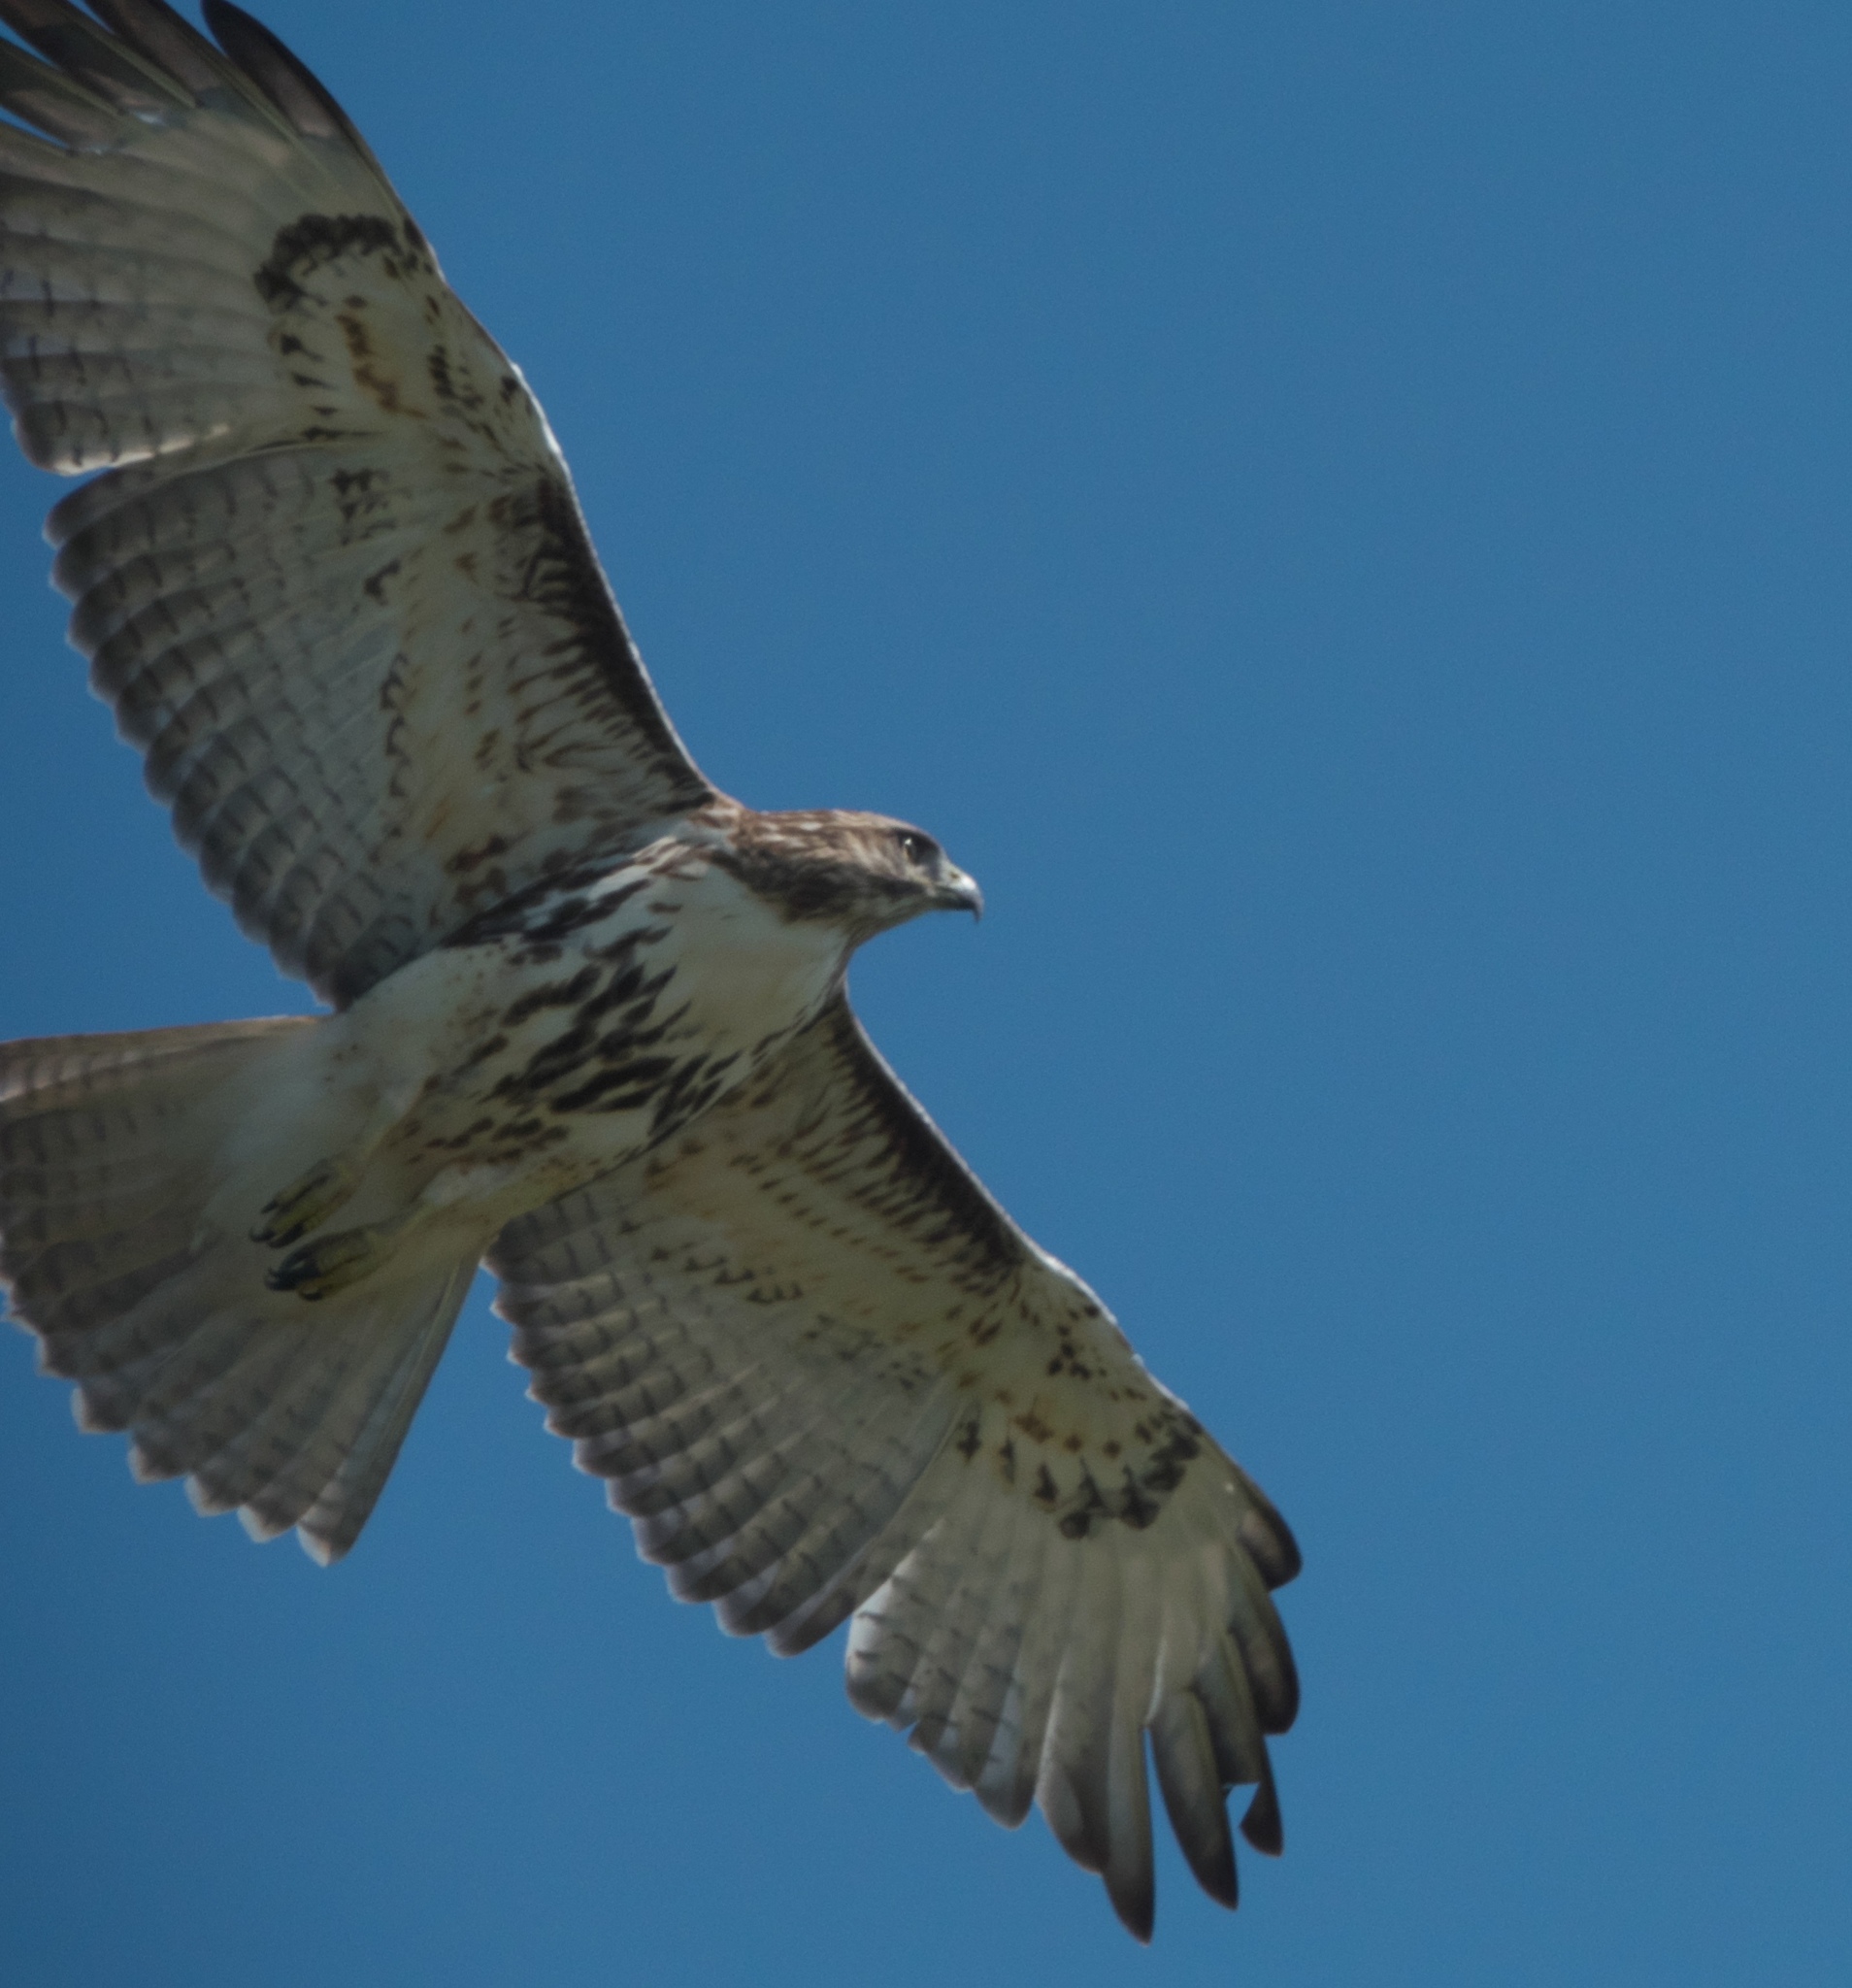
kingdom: Animalia
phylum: Chordata
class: Aves
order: Accipitriformes
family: Accipitridae
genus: Buteo
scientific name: Buteo jamaicensis
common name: Red-tailed hawk
